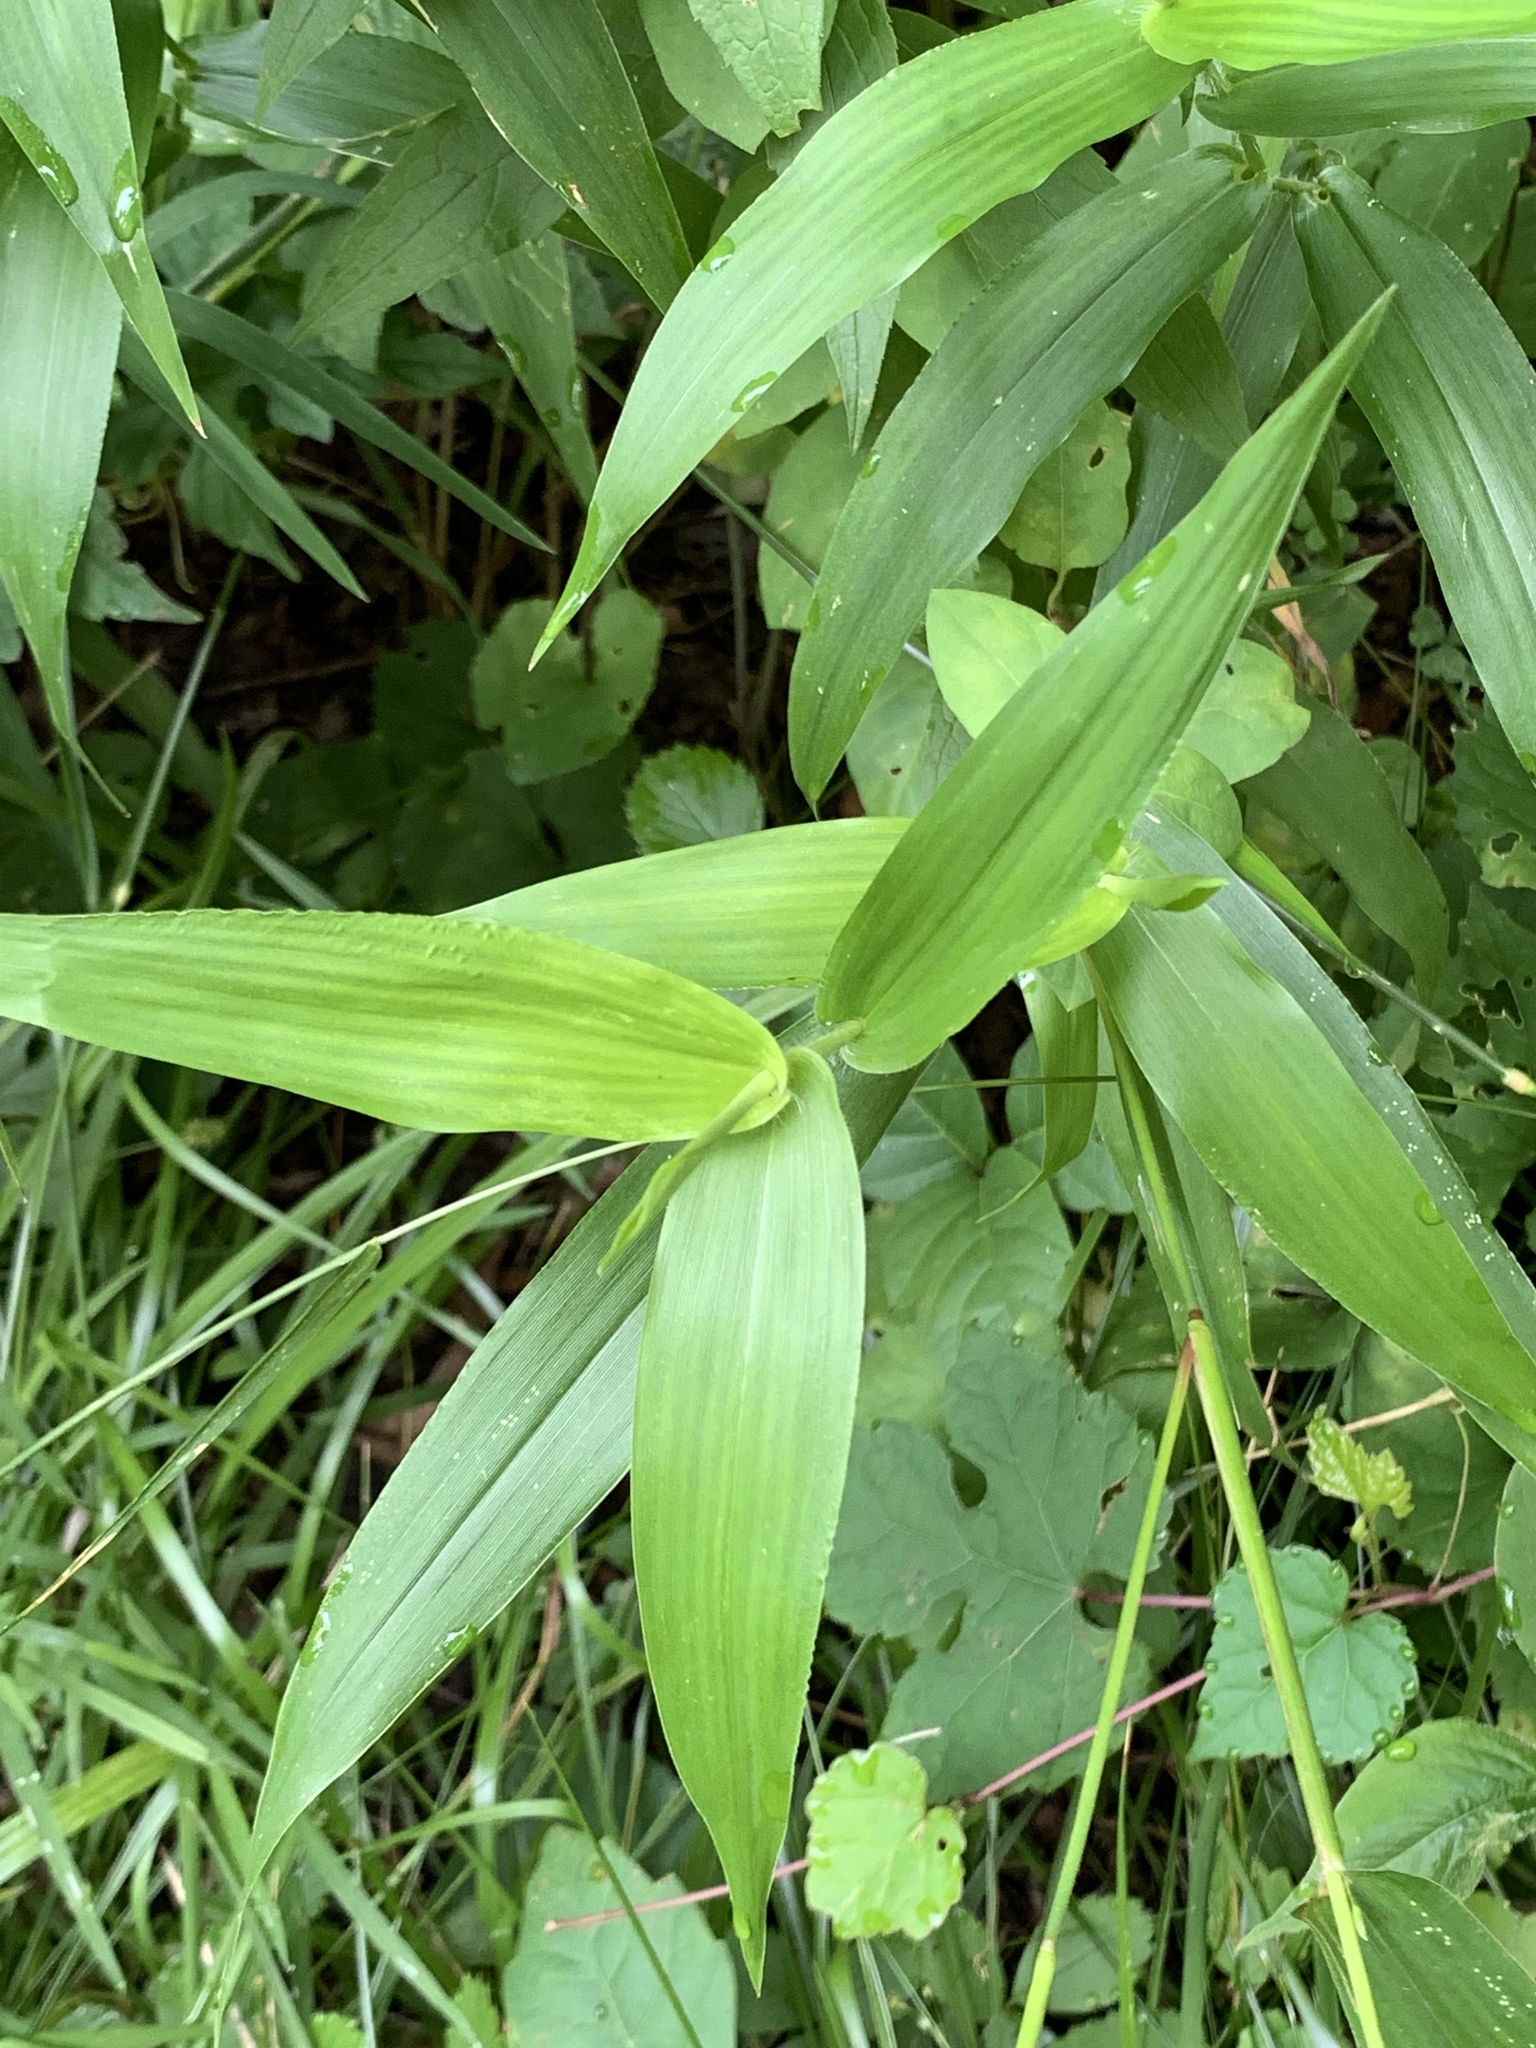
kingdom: Plantae
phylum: Tracheophyta
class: Liliopsida
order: Poales
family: Poaceae
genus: Dichanthelium
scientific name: Dichanthelium clandestinum
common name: Deer-tongue grass
